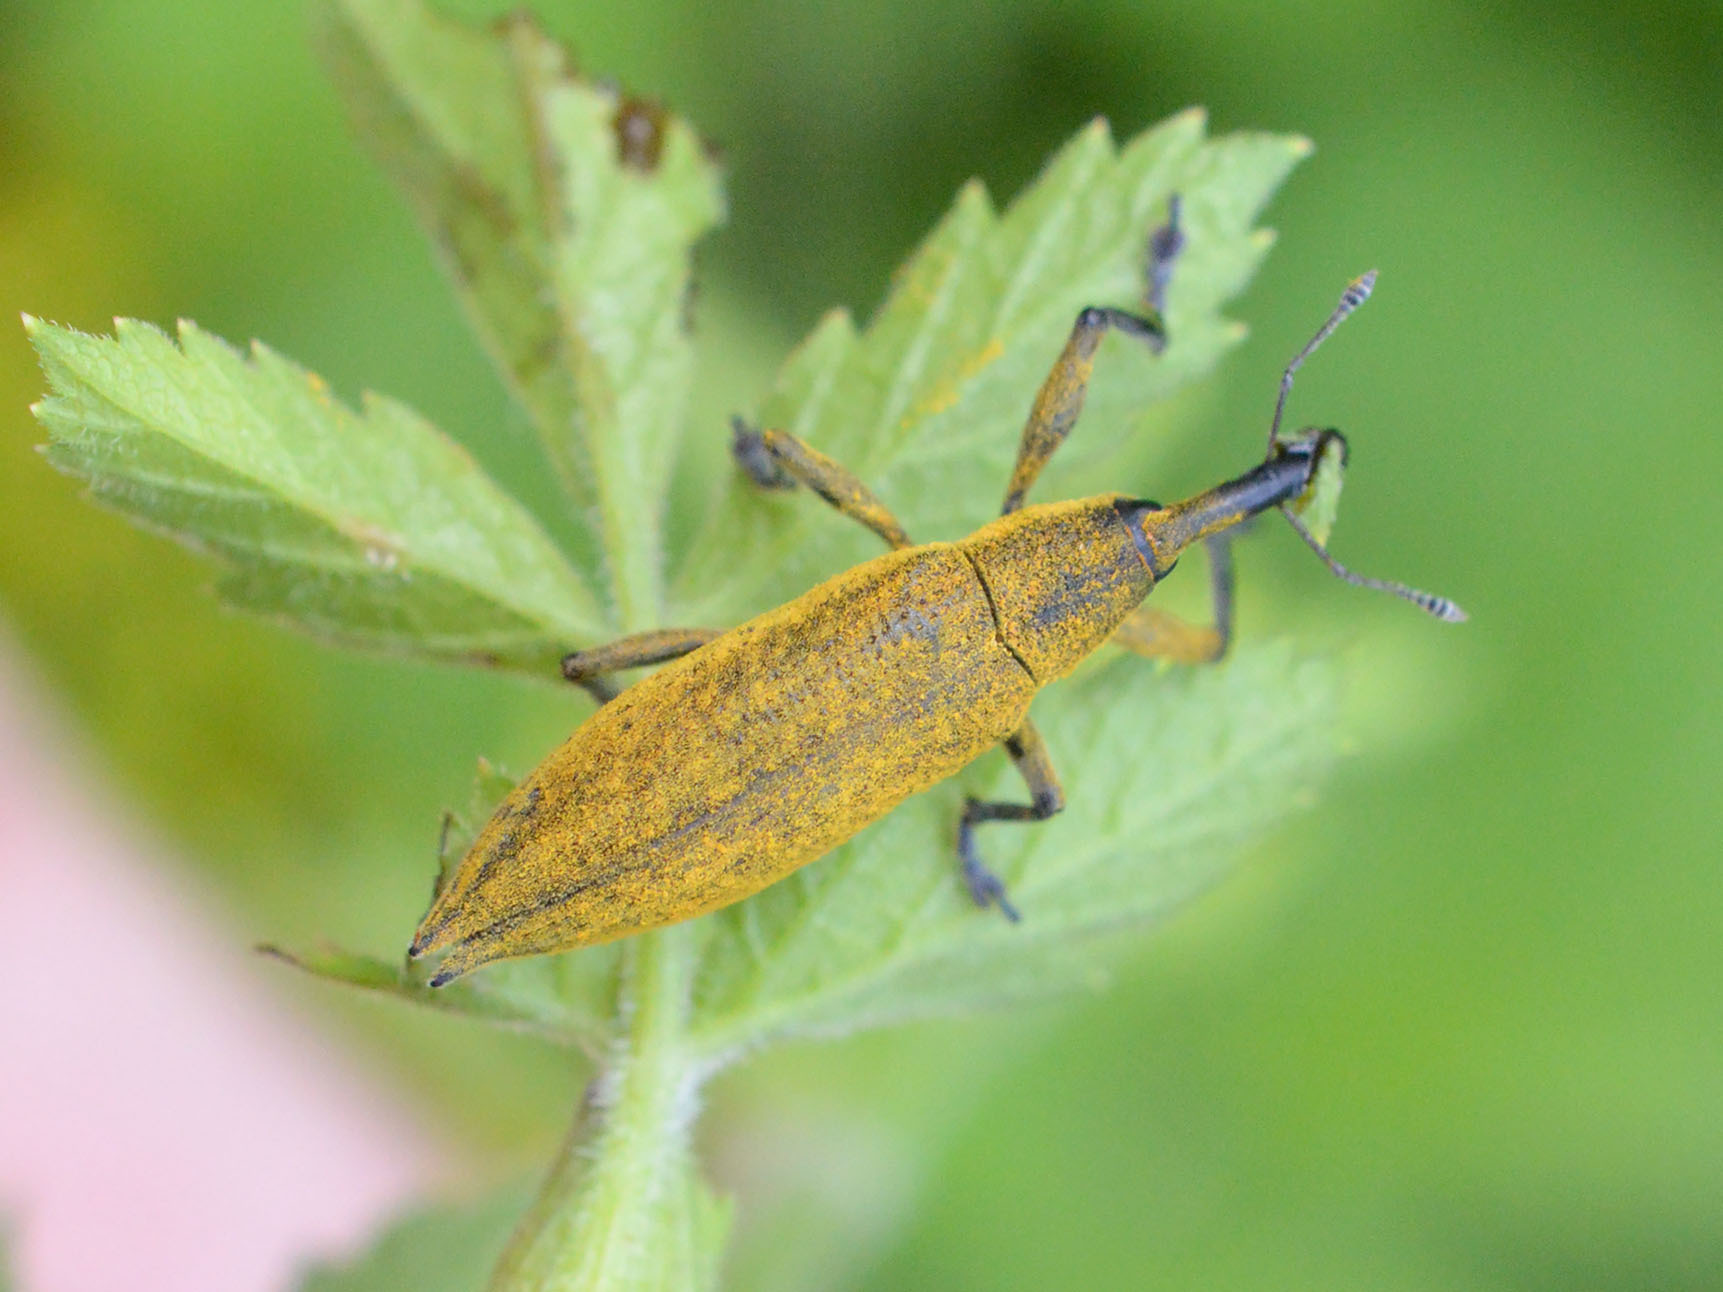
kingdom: Animalia
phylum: Arthropoda
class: Insecta
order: Coleoptera
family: Curculionidae
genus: Lixus
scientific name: Lixus iridis
